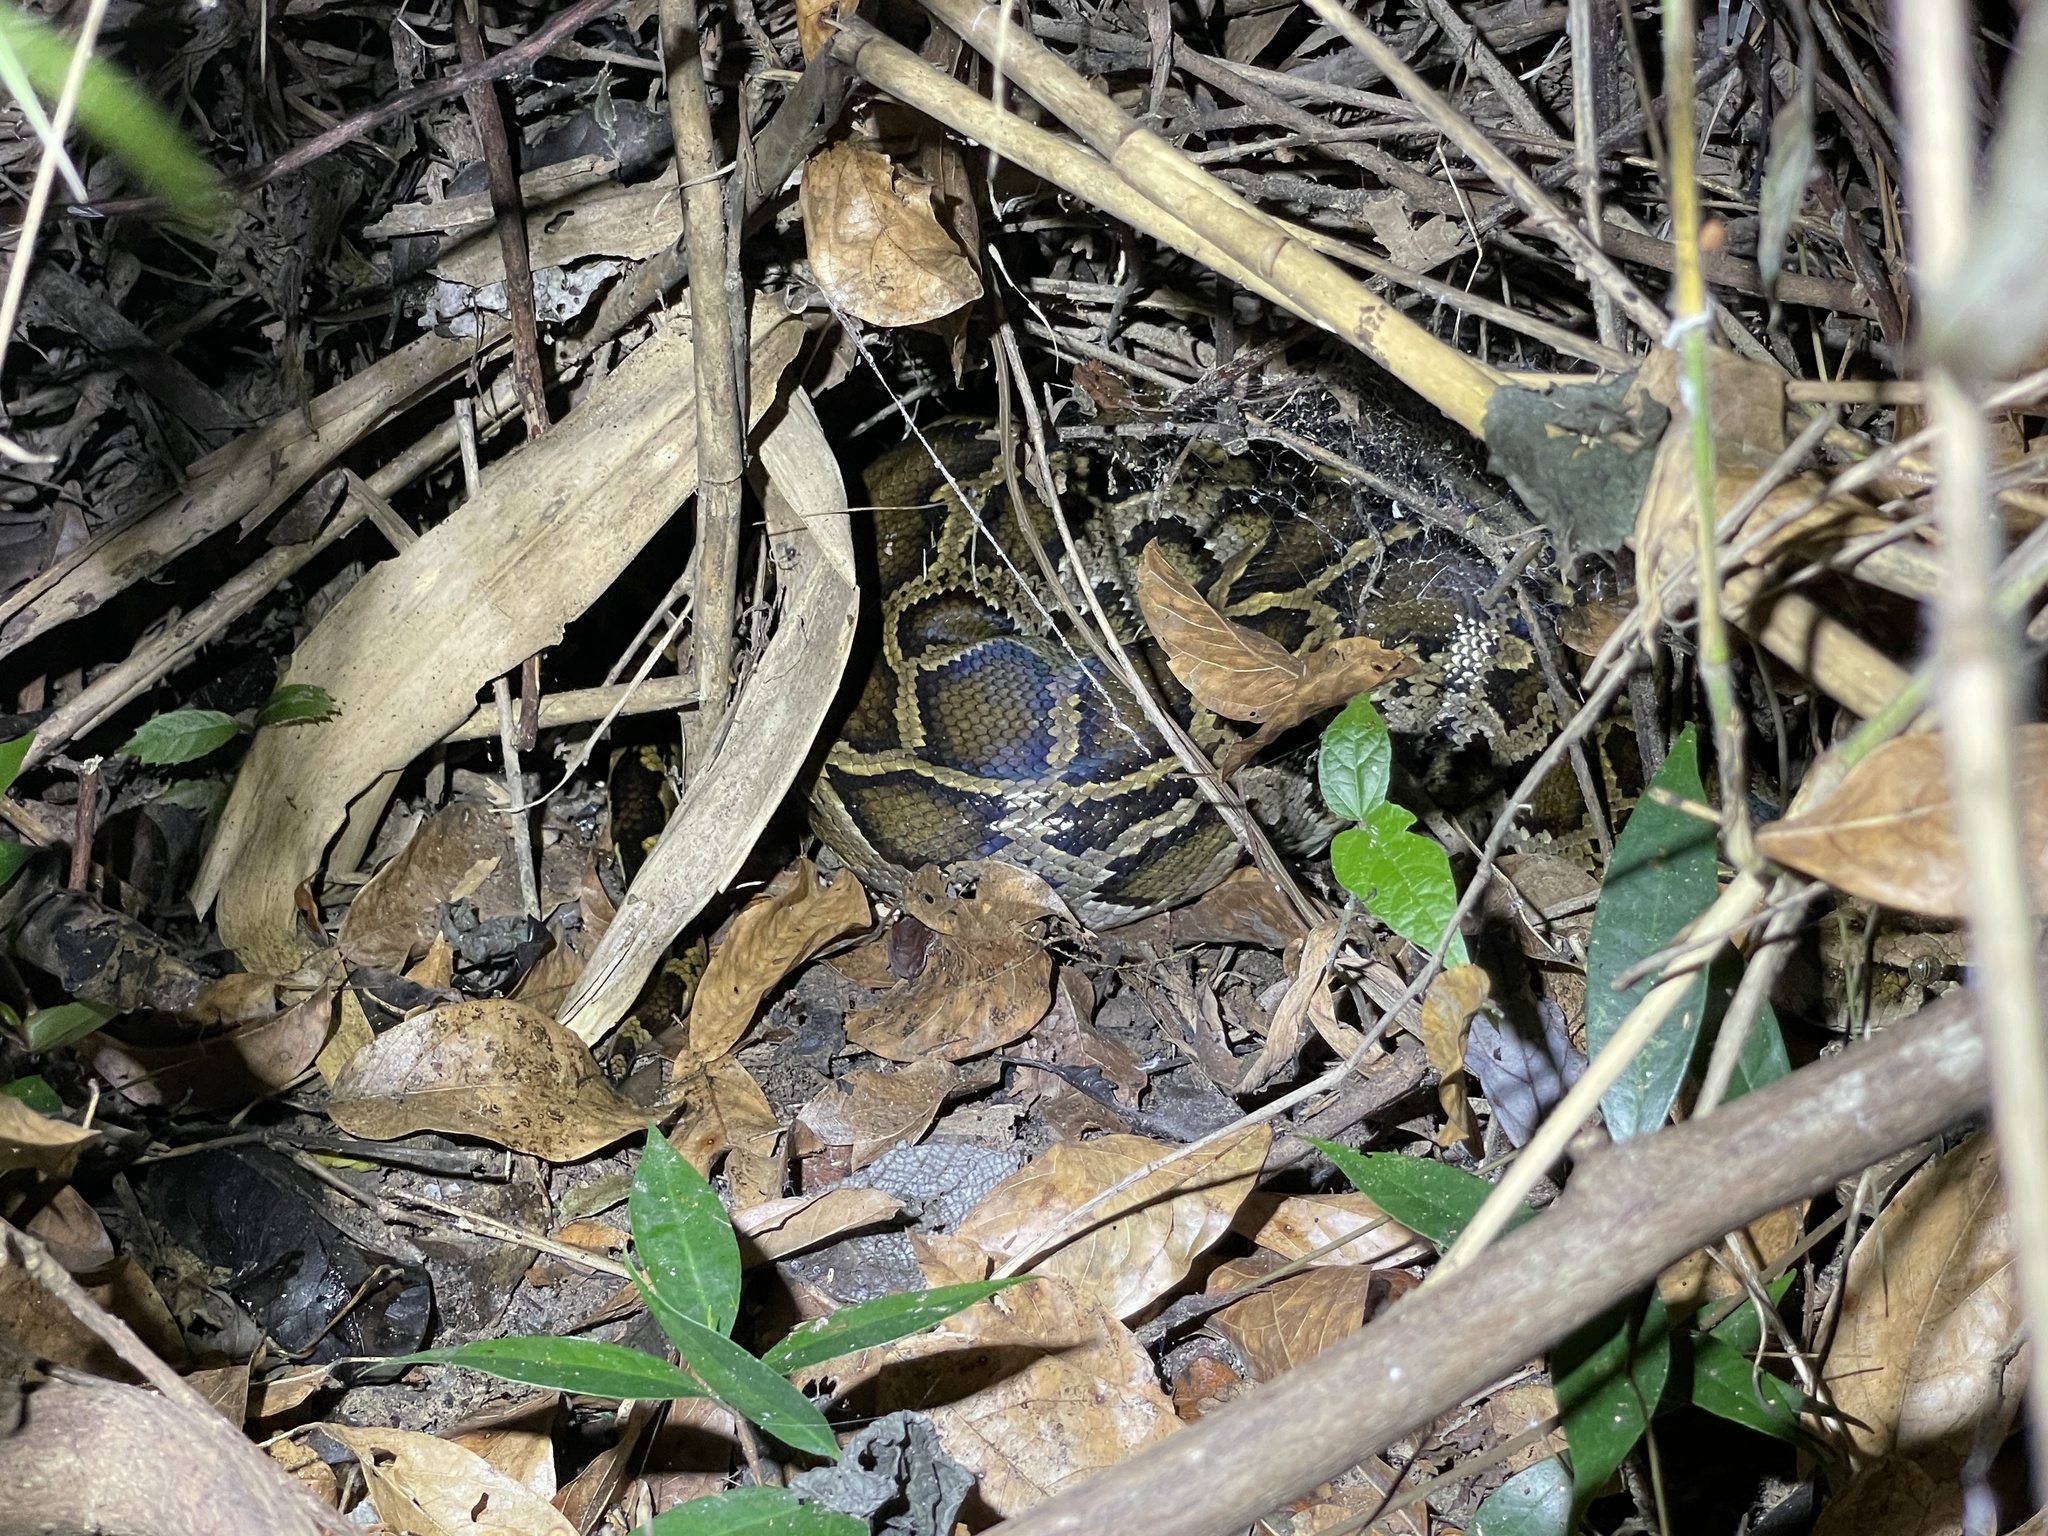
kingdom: Animalia
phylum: Chordata
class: Squamata
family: Pythonidae
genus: Python
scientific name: Python bivittatus
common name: Burmese python
